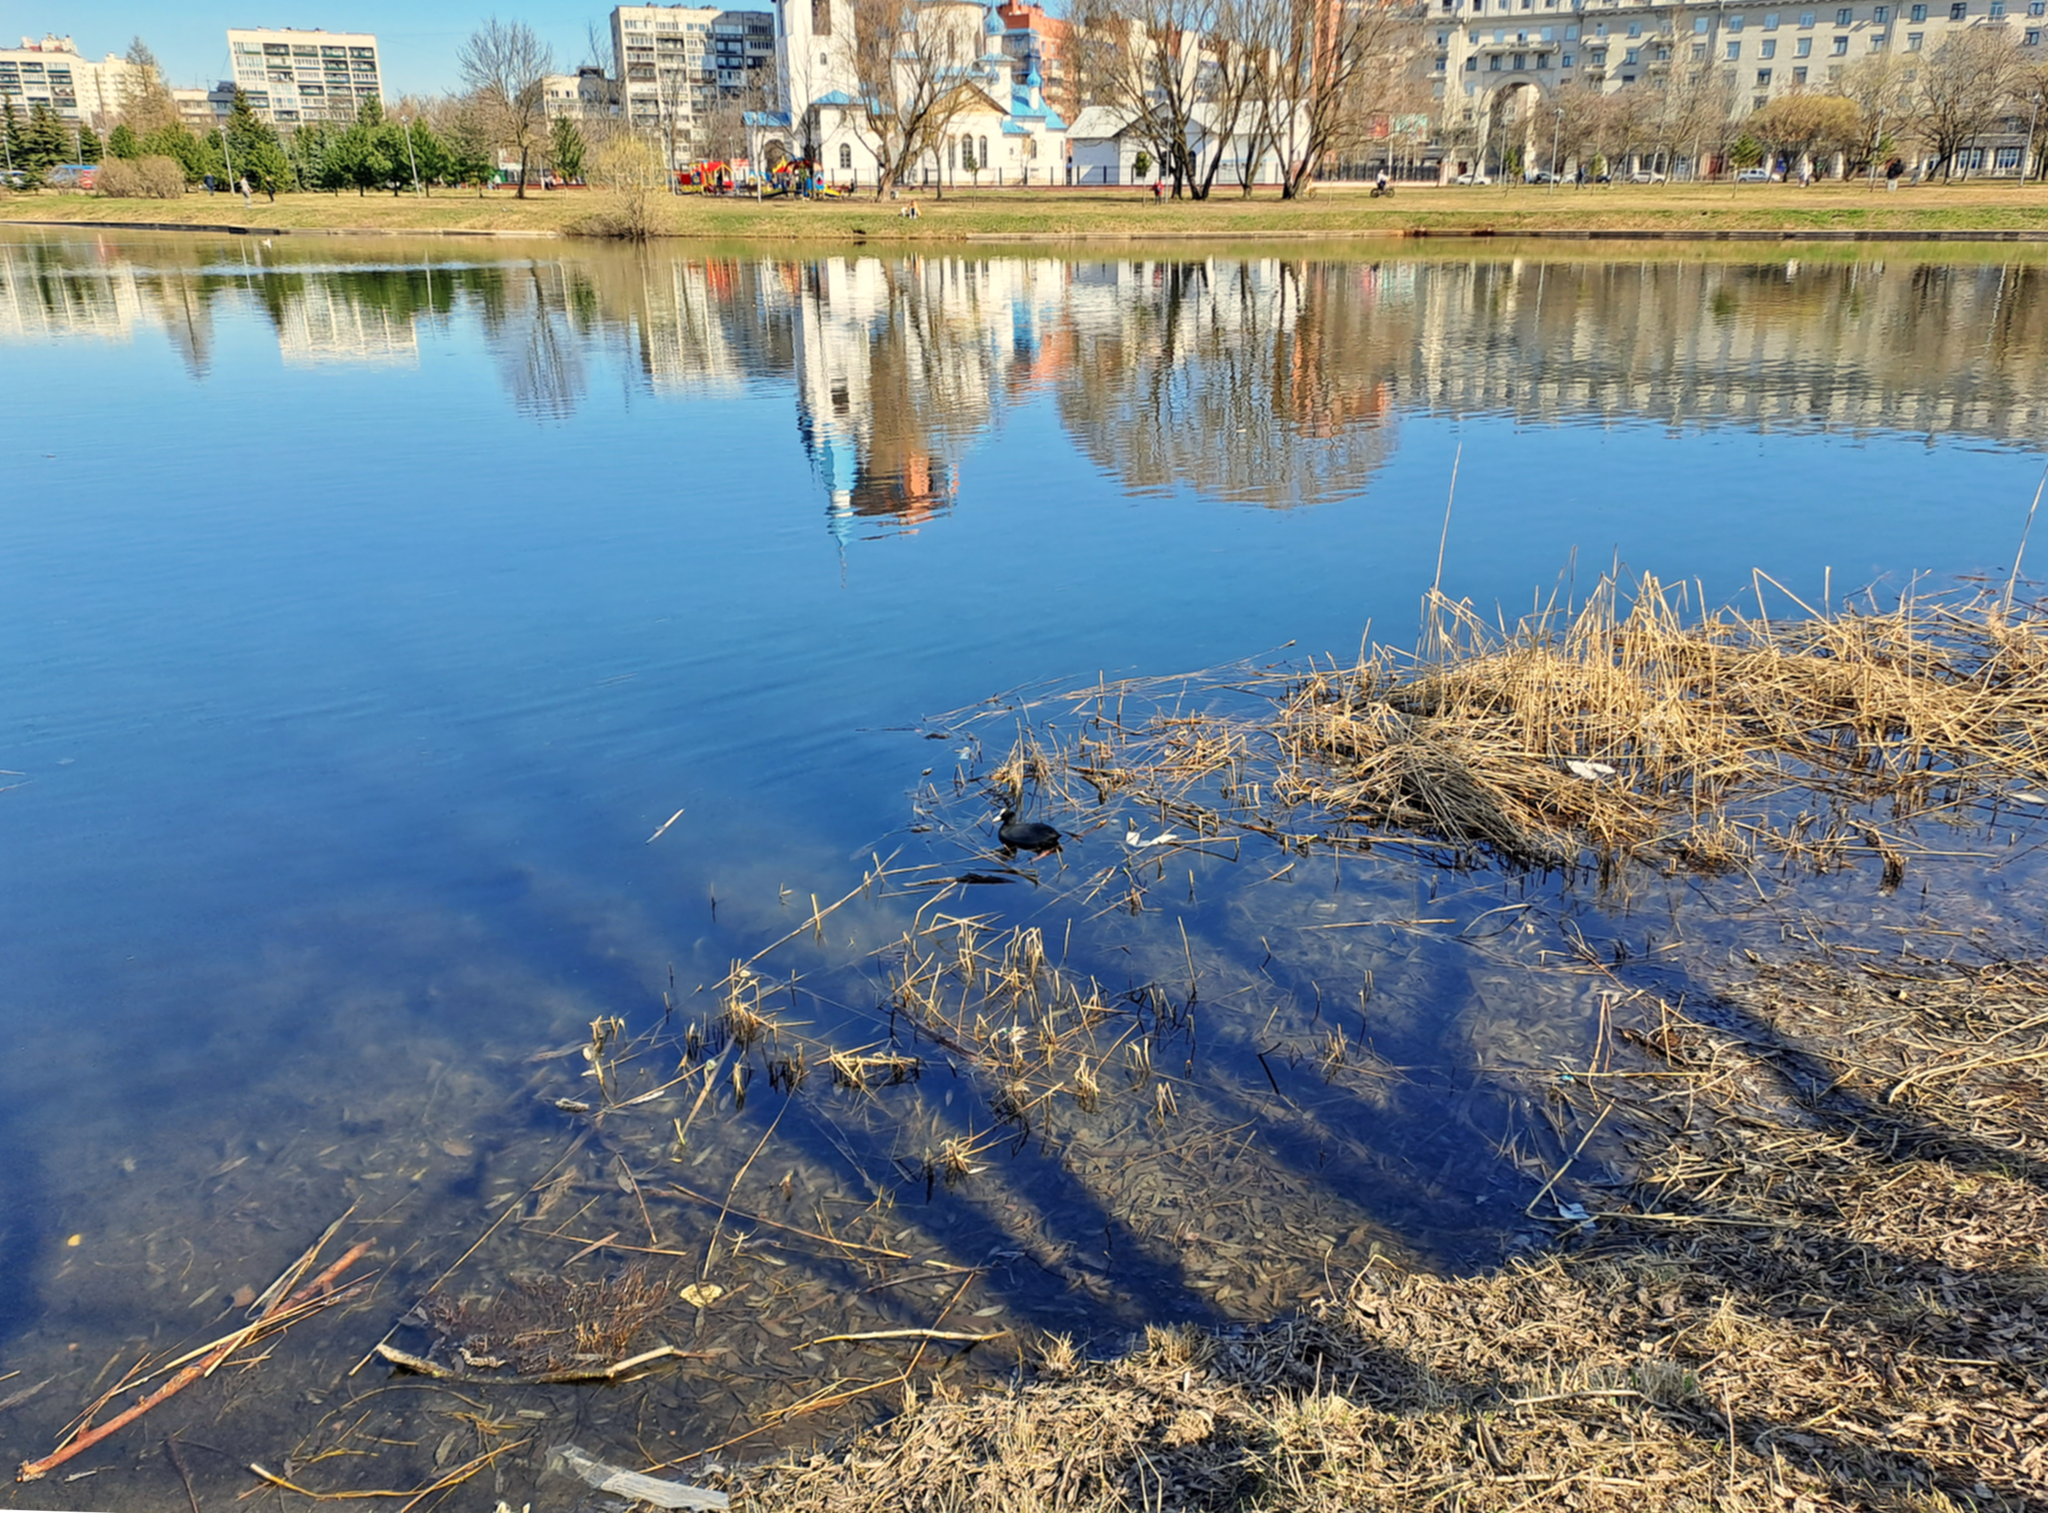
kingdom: Animalia
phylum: Chordata
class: Aves
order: Gruiformes
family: Rallidae
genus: Fulica
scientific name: Fulica atra
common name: Eurasian coot
